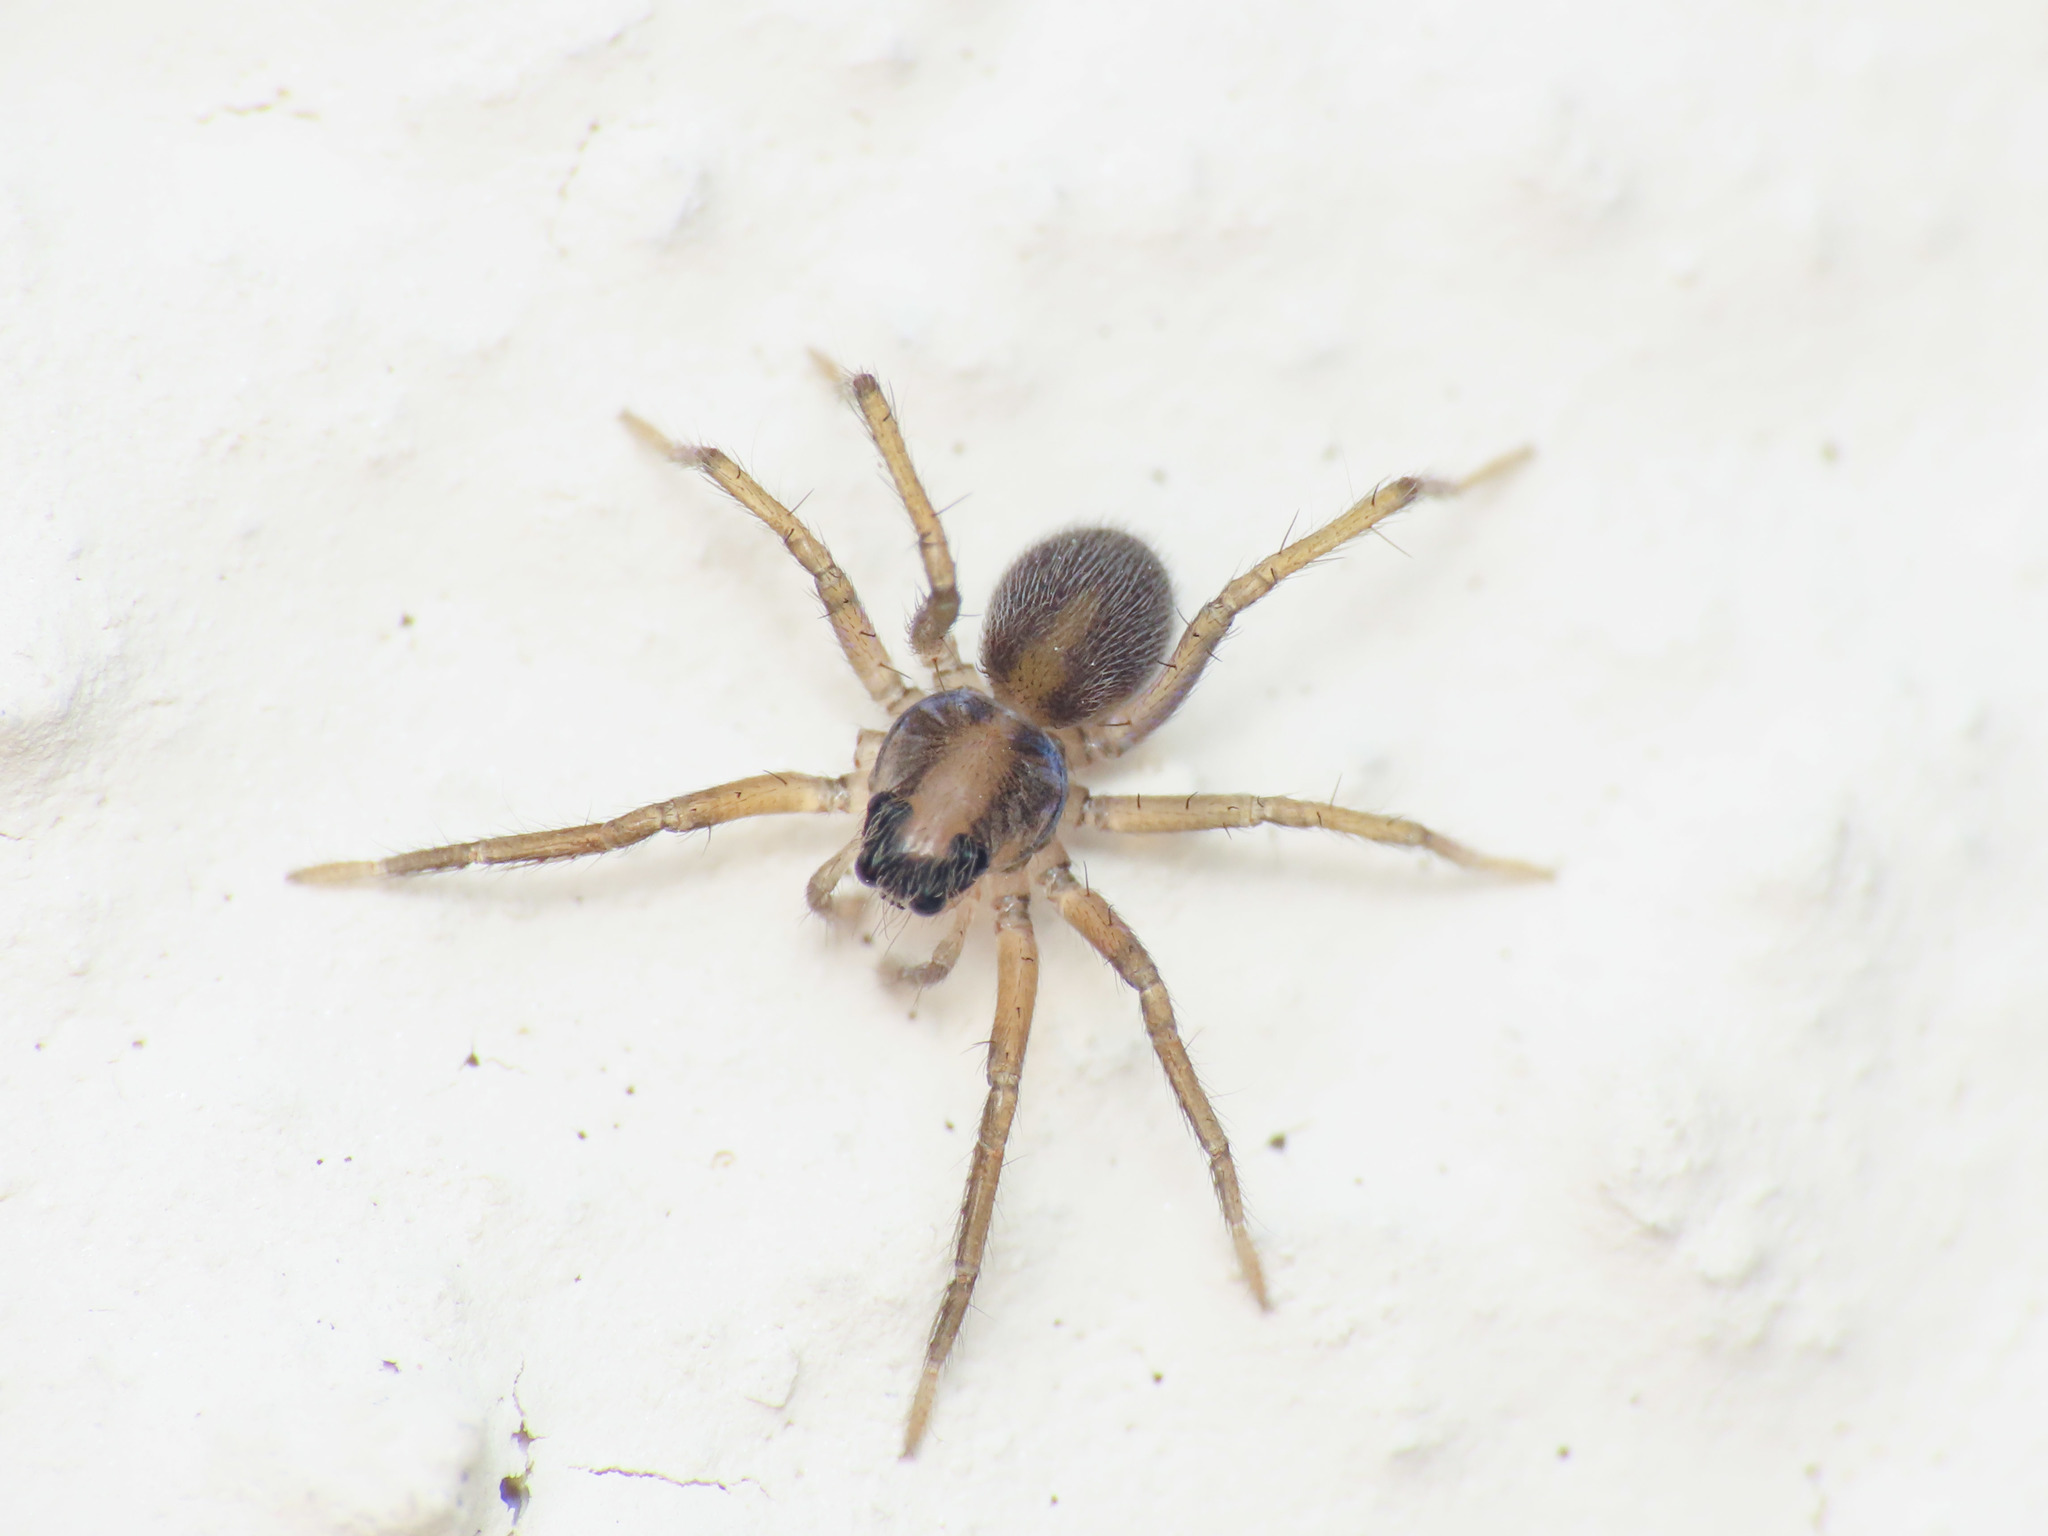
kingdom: Animalia
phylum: Arthropoda
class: Arachnida
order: Araneae
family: Lycosidae
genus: Trabea
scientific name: Trabea paradoxa
